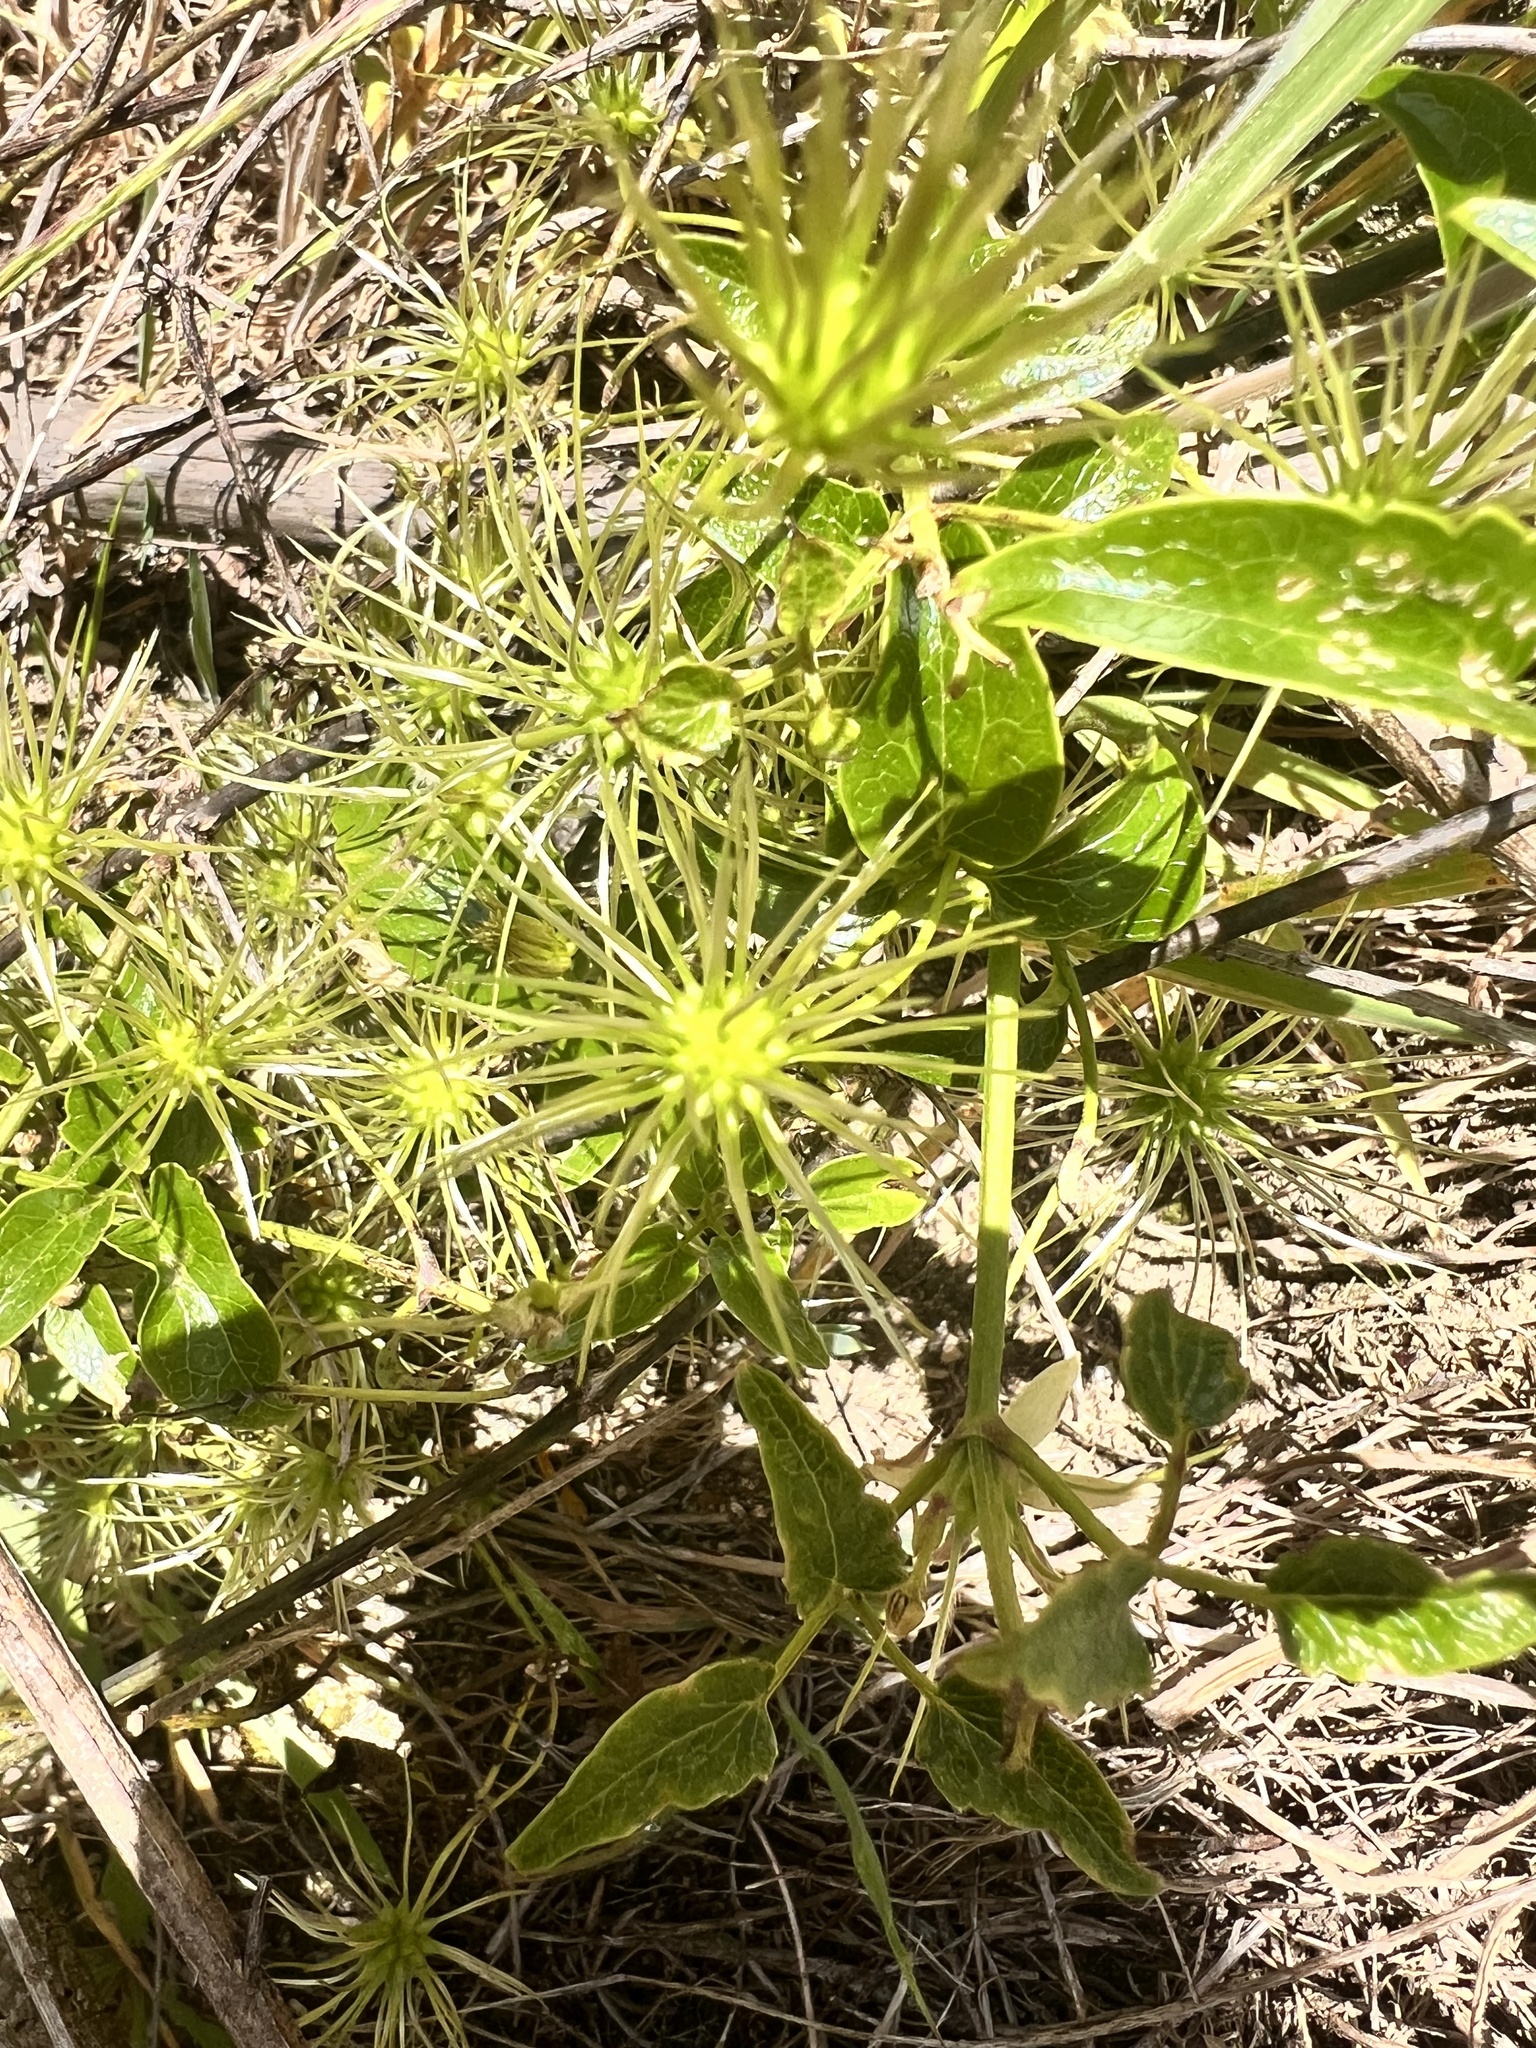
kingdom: Plantae
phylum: Tracheophyta
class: Magnoliopsida
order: Ranunculales
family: Ranunculaceae
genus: Clematis
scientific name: Clematis foetida
